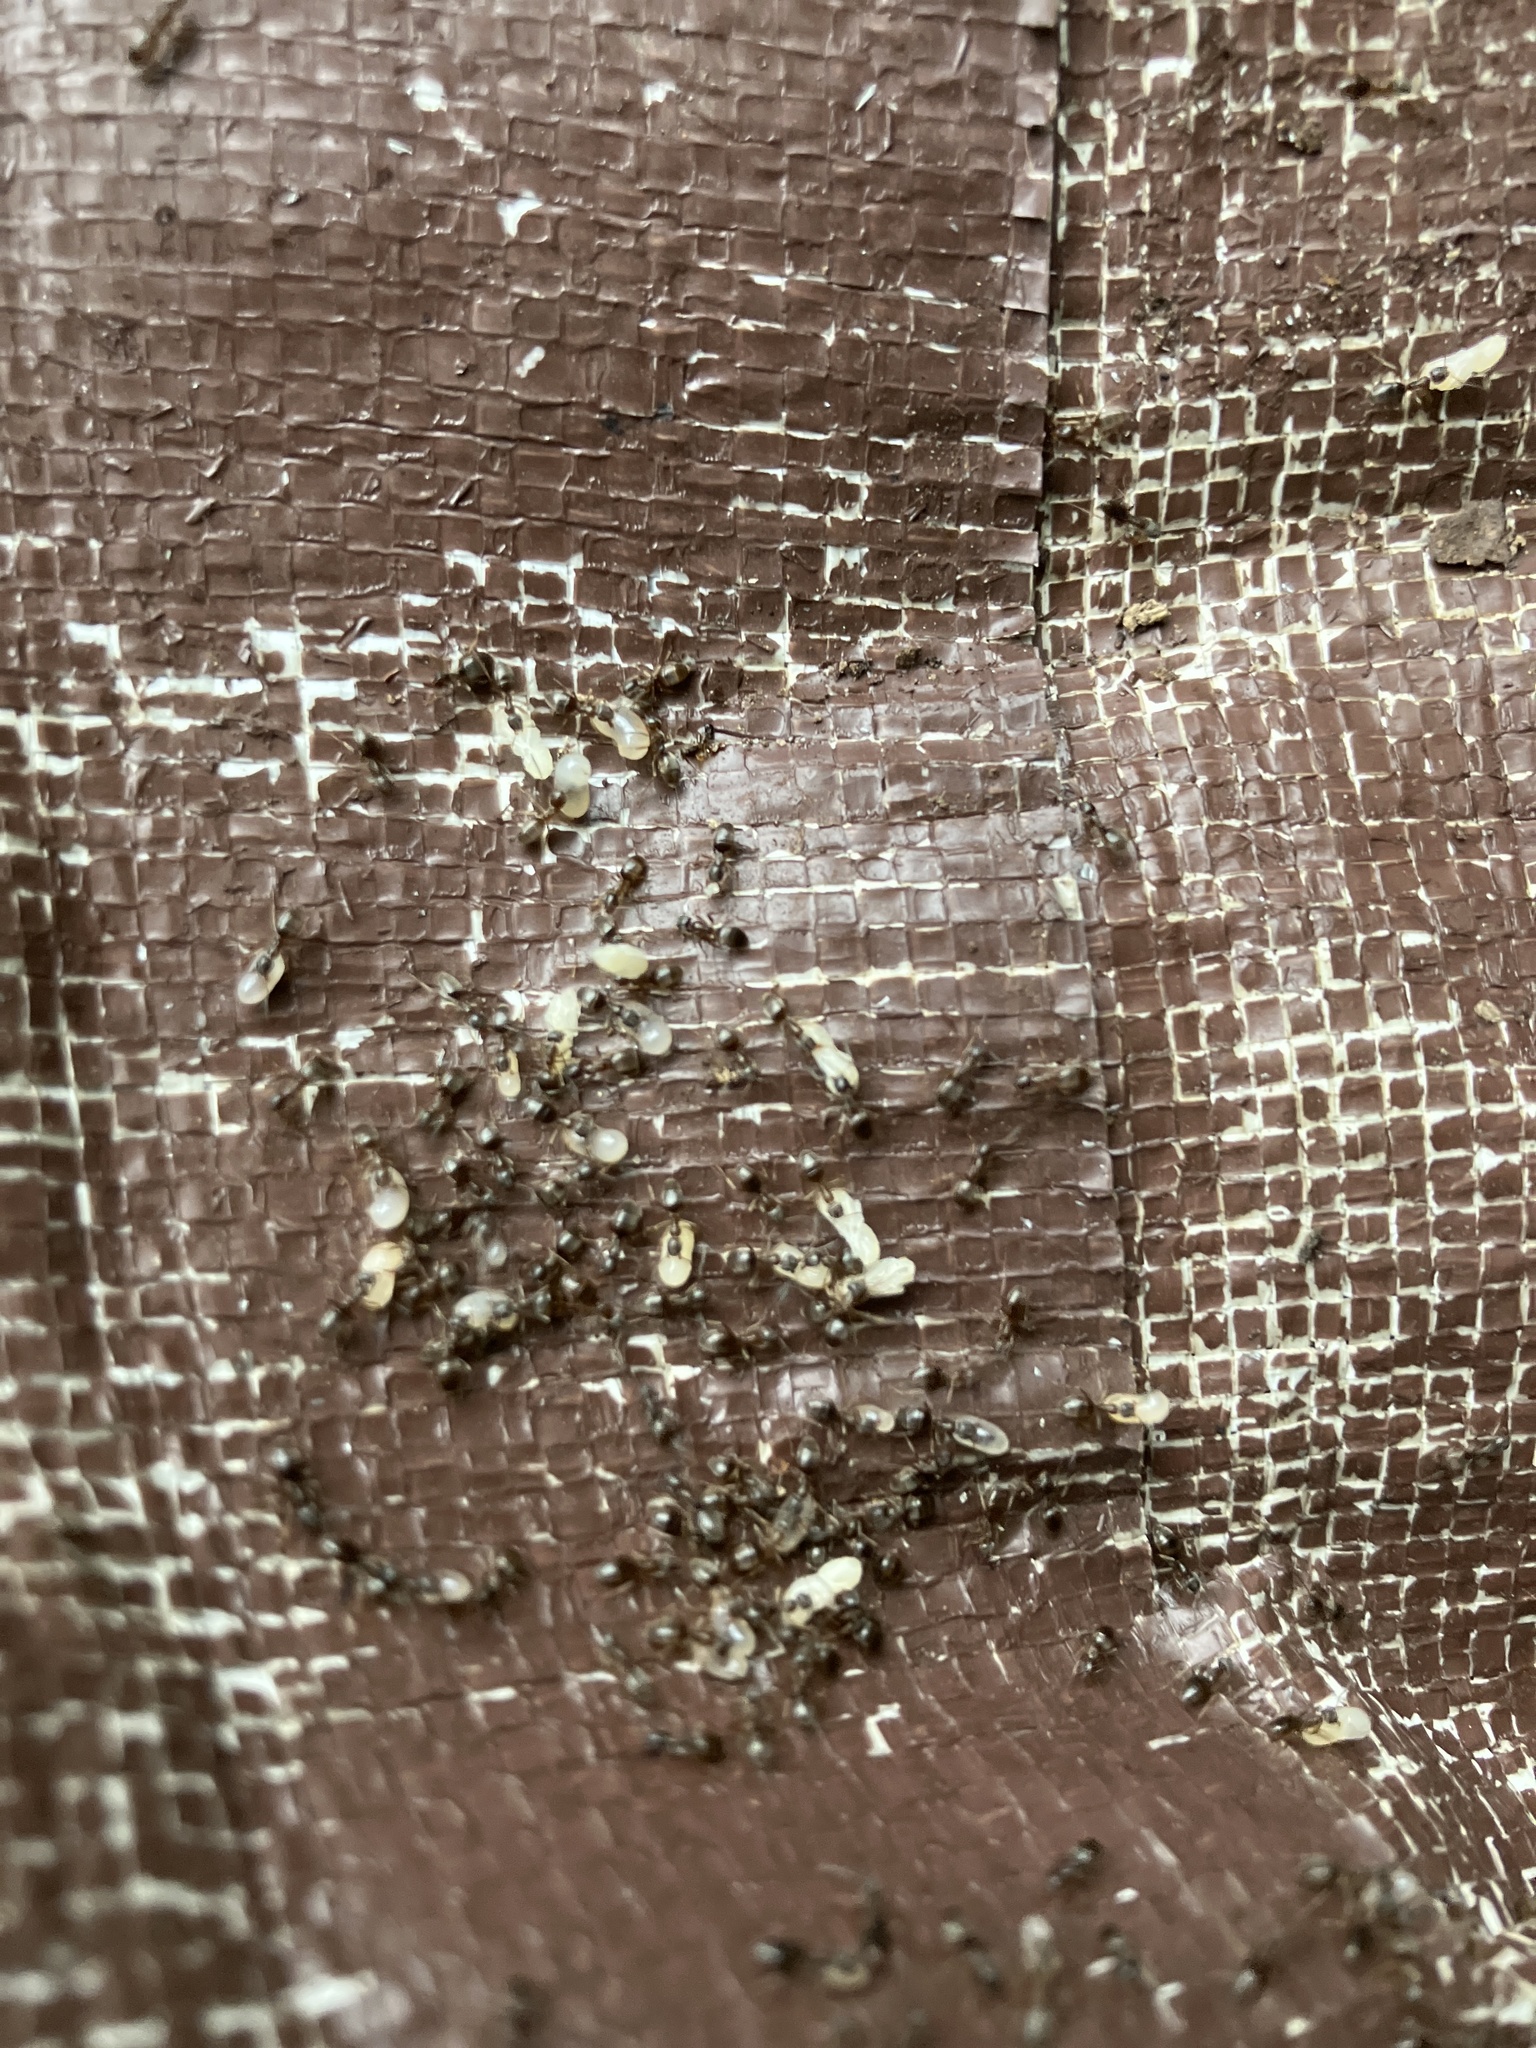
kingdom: Animalia
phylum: Arthropoda
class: Insecta
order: Hymenoptera
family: Formicidae
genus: Tapinoma
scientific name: Tapinoma sessile
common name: Odorous house ant
